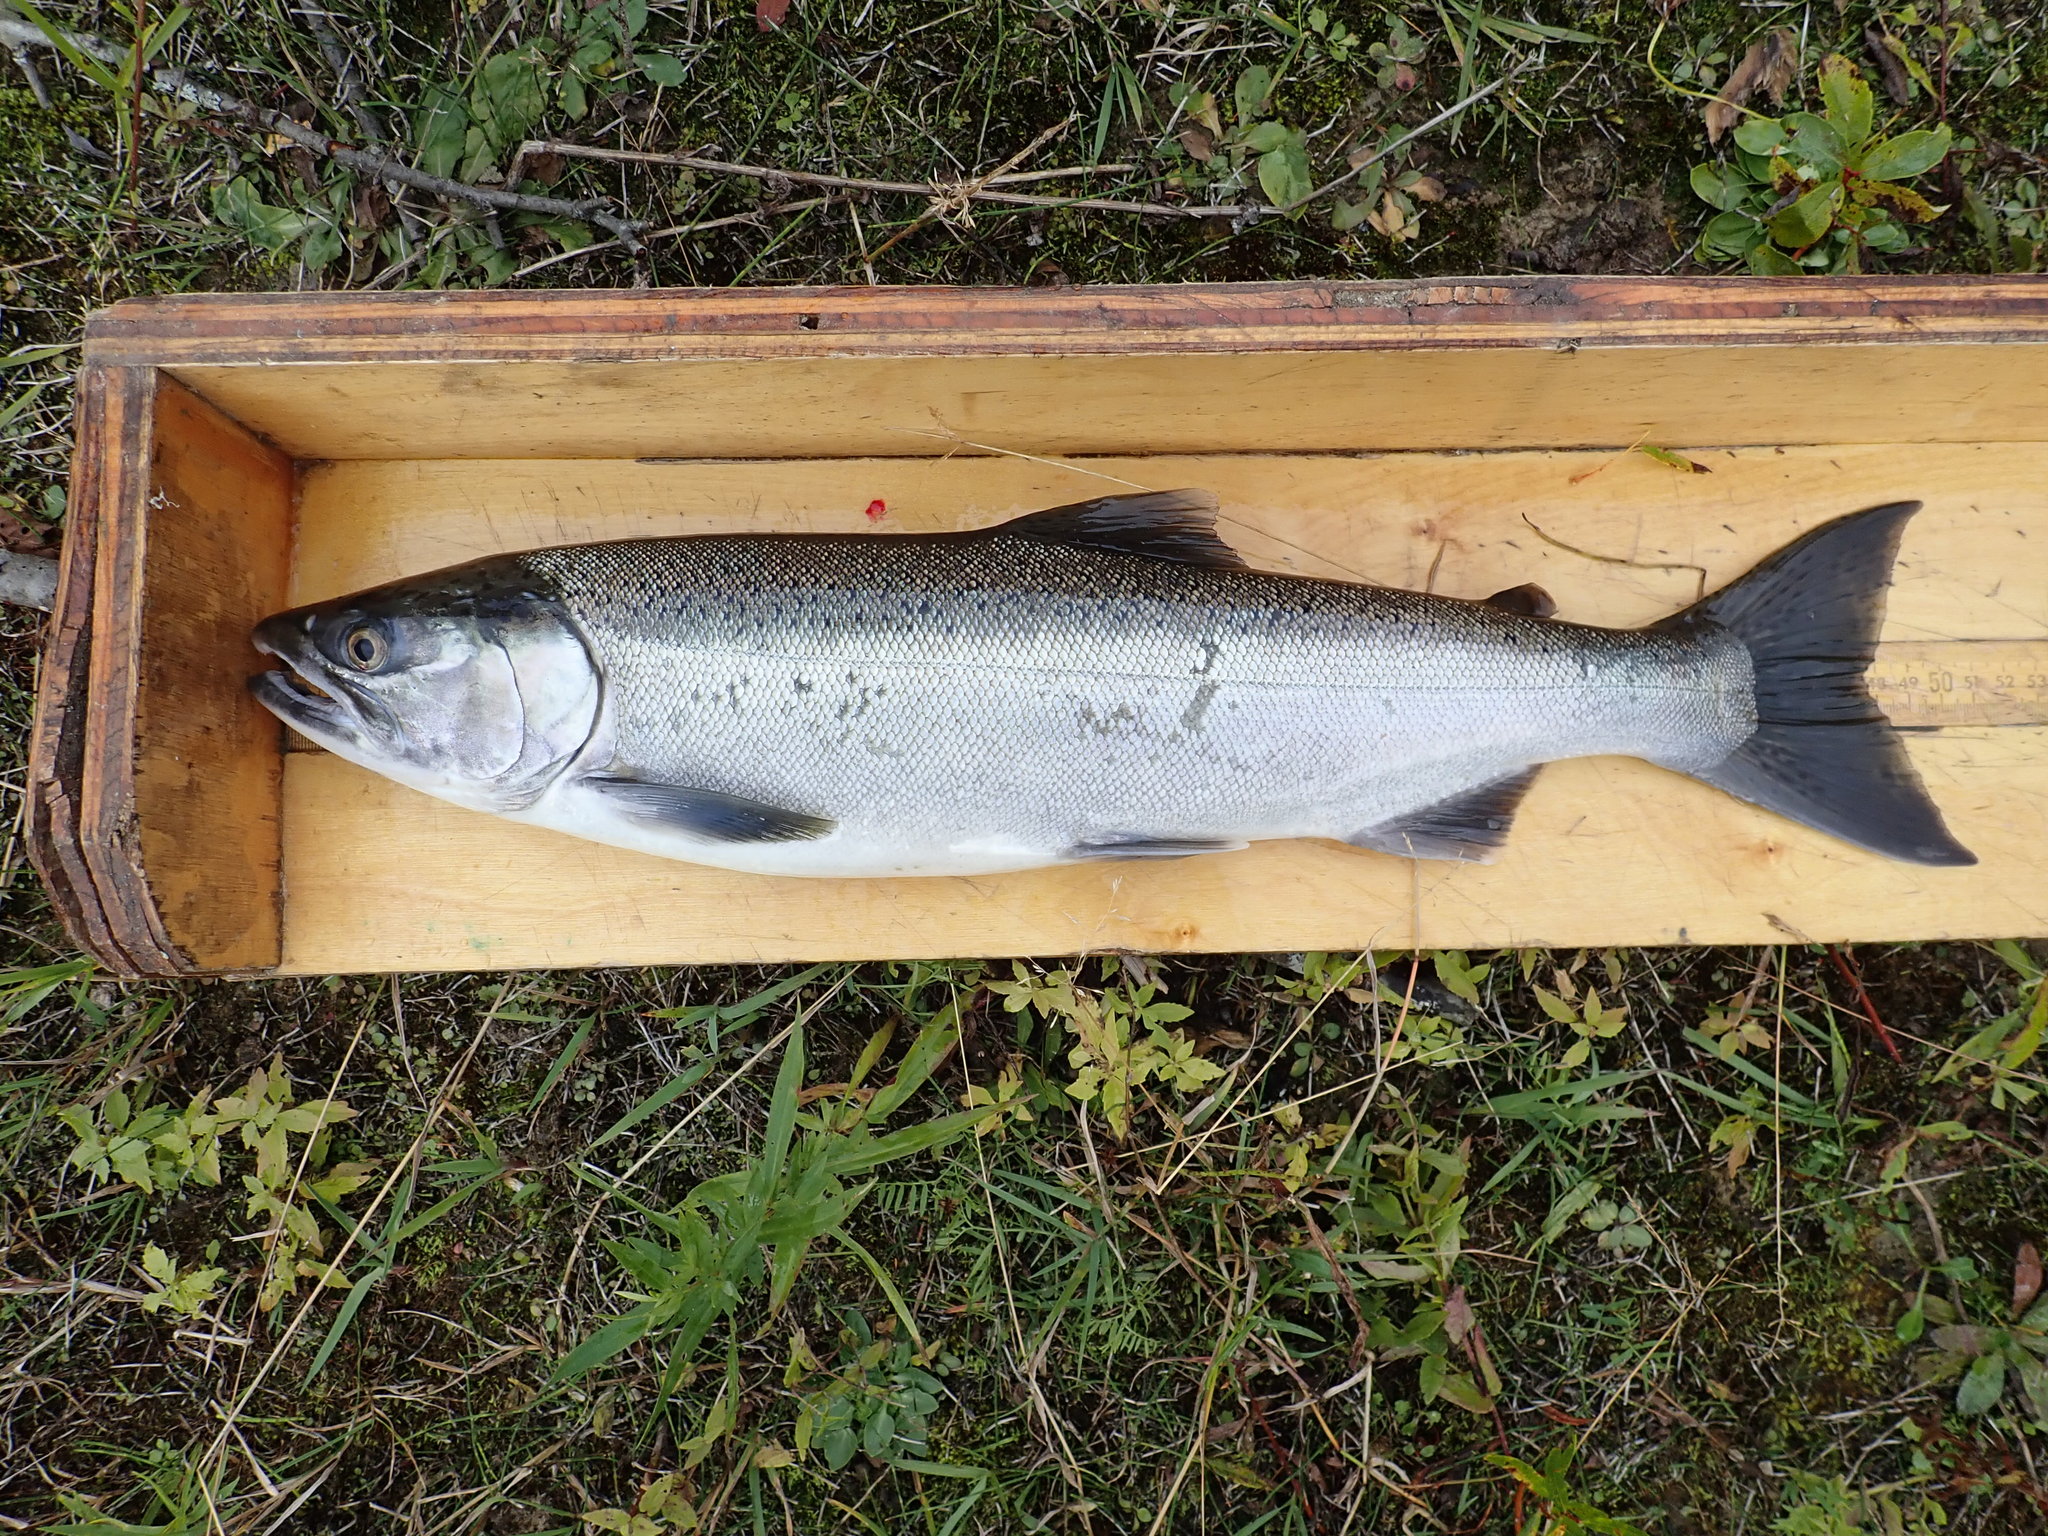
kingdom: Animalia
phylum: Chordata
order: Salmoniformes
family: Salmonidae
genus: Oncorhynchus
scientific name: Oncorhynchus kisutch
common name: Coho salmon
